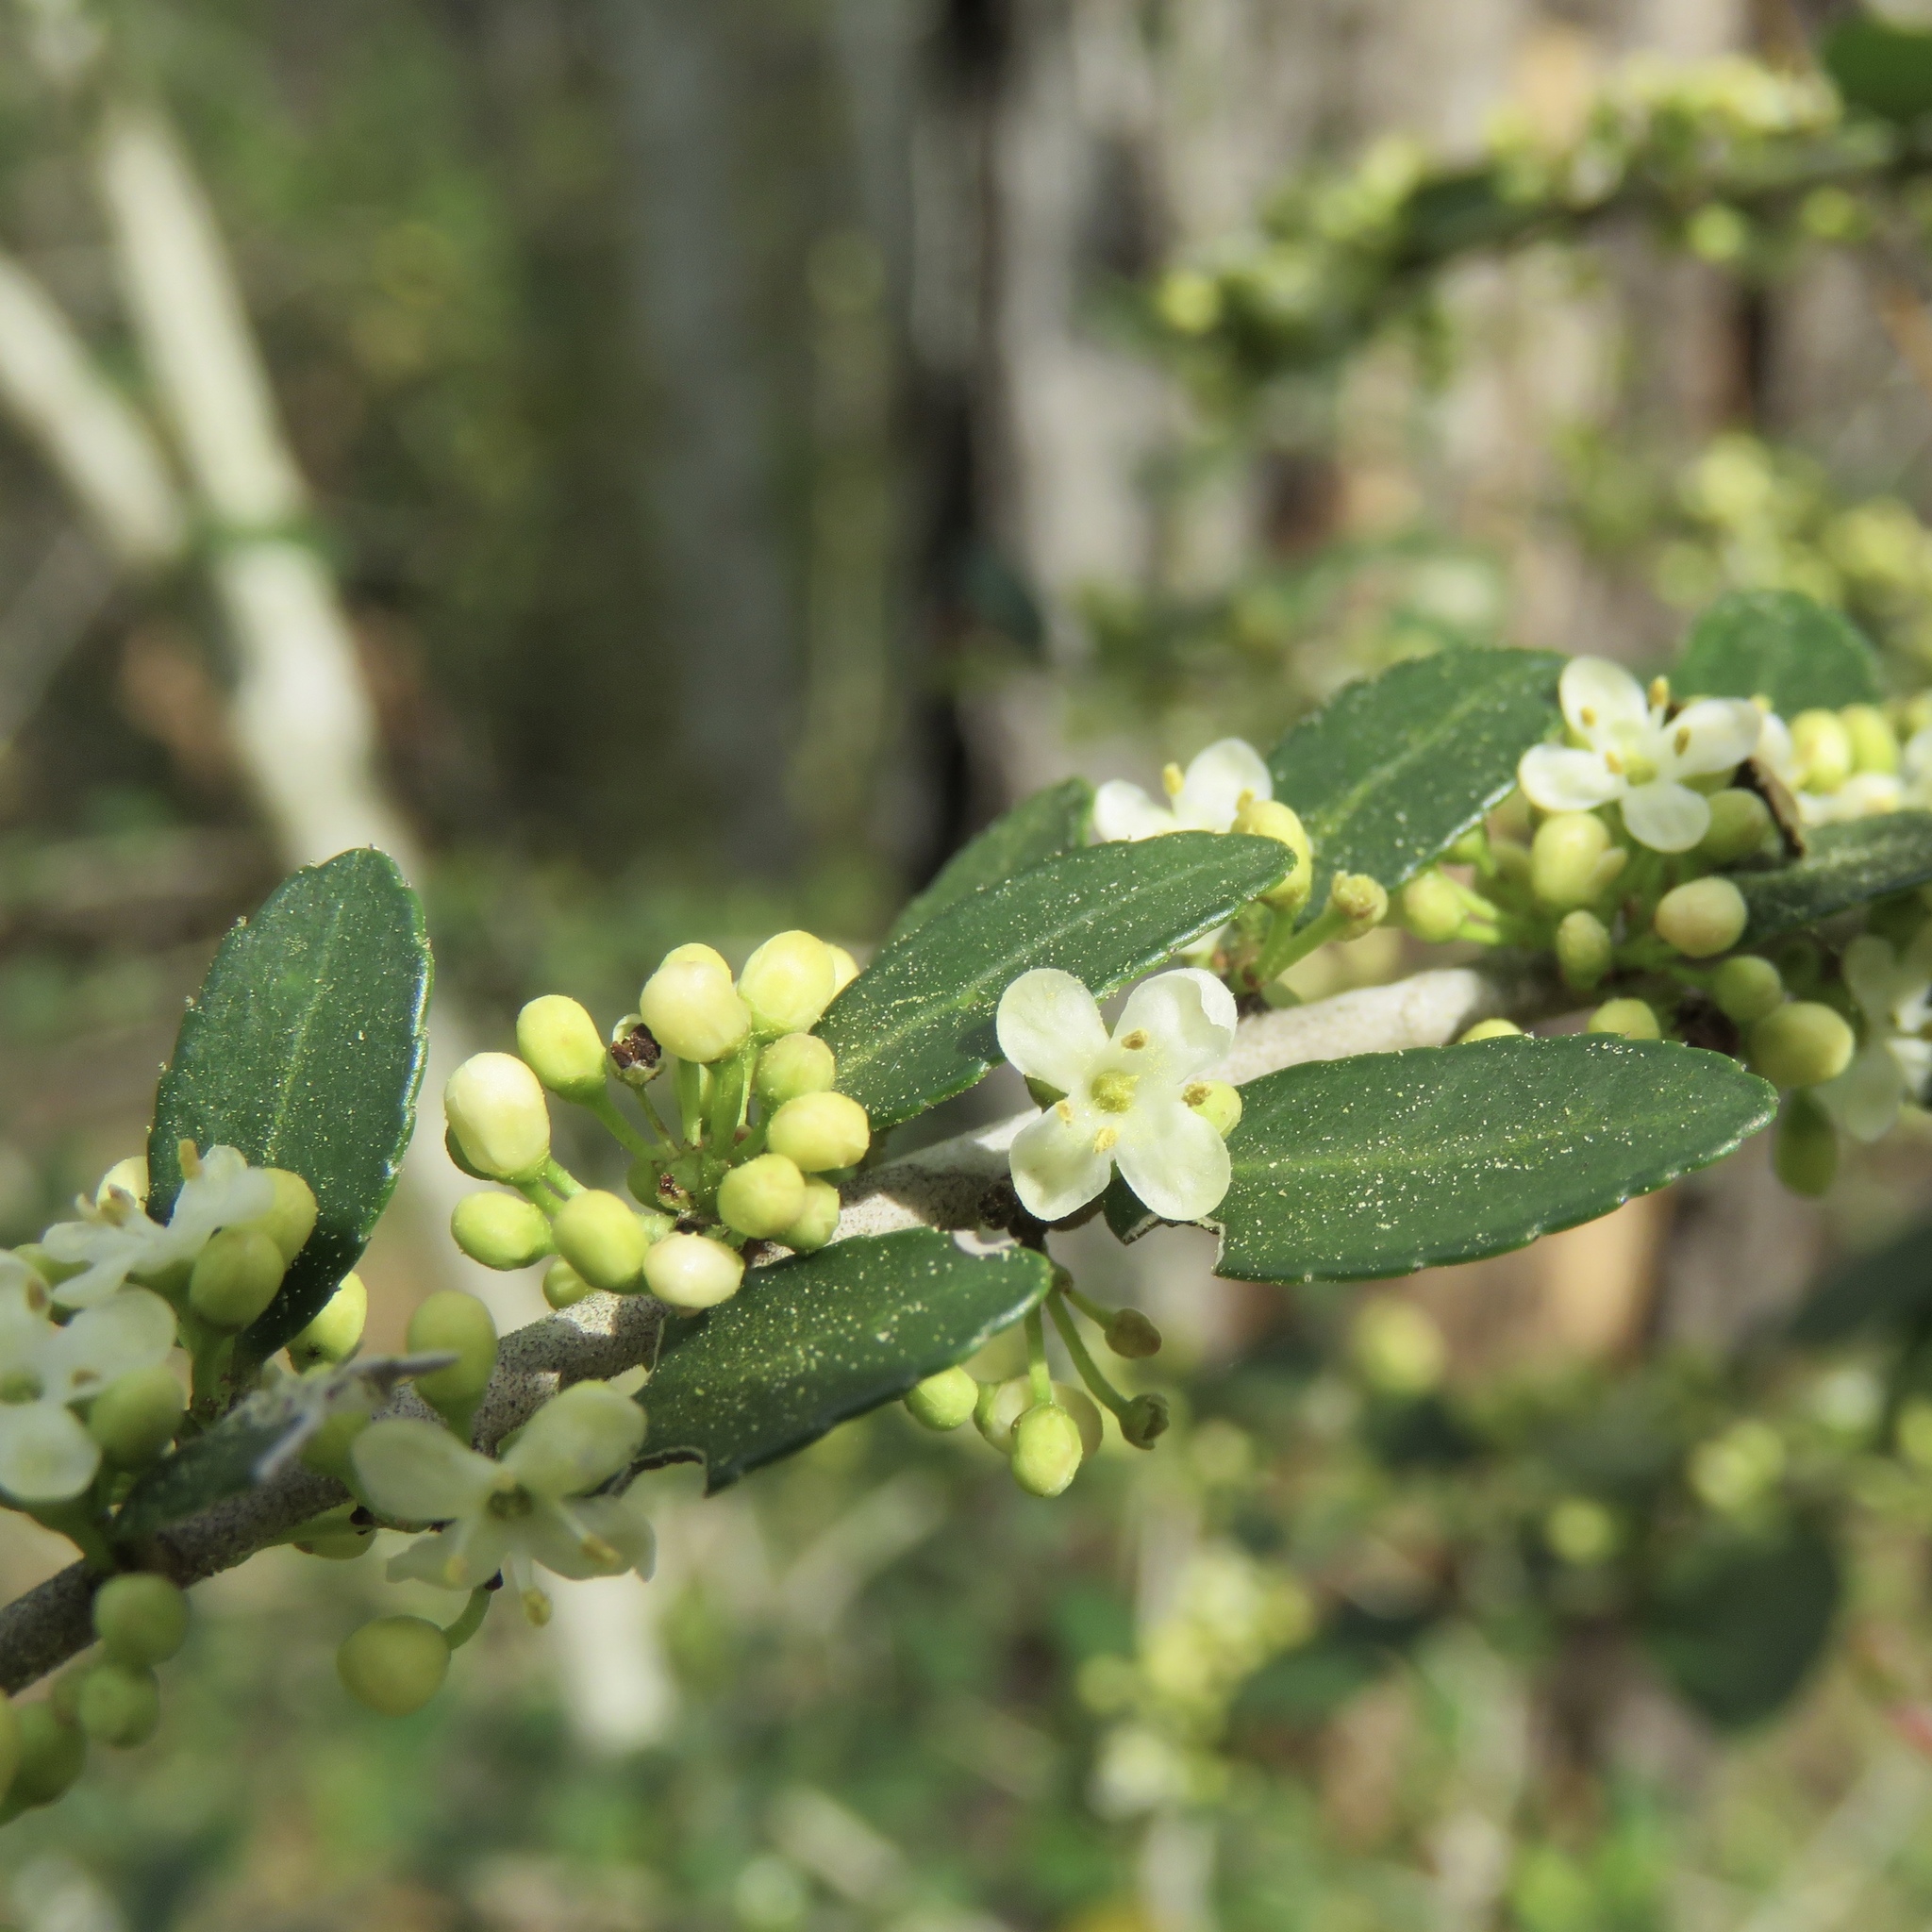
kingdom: Plantae
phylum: Tracheophyta
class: Magnoliopsida
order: Aquifoliales
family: Aquifoliaceae
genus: Ilex
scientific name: Ilex vomitoria
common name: Yaupon holly
